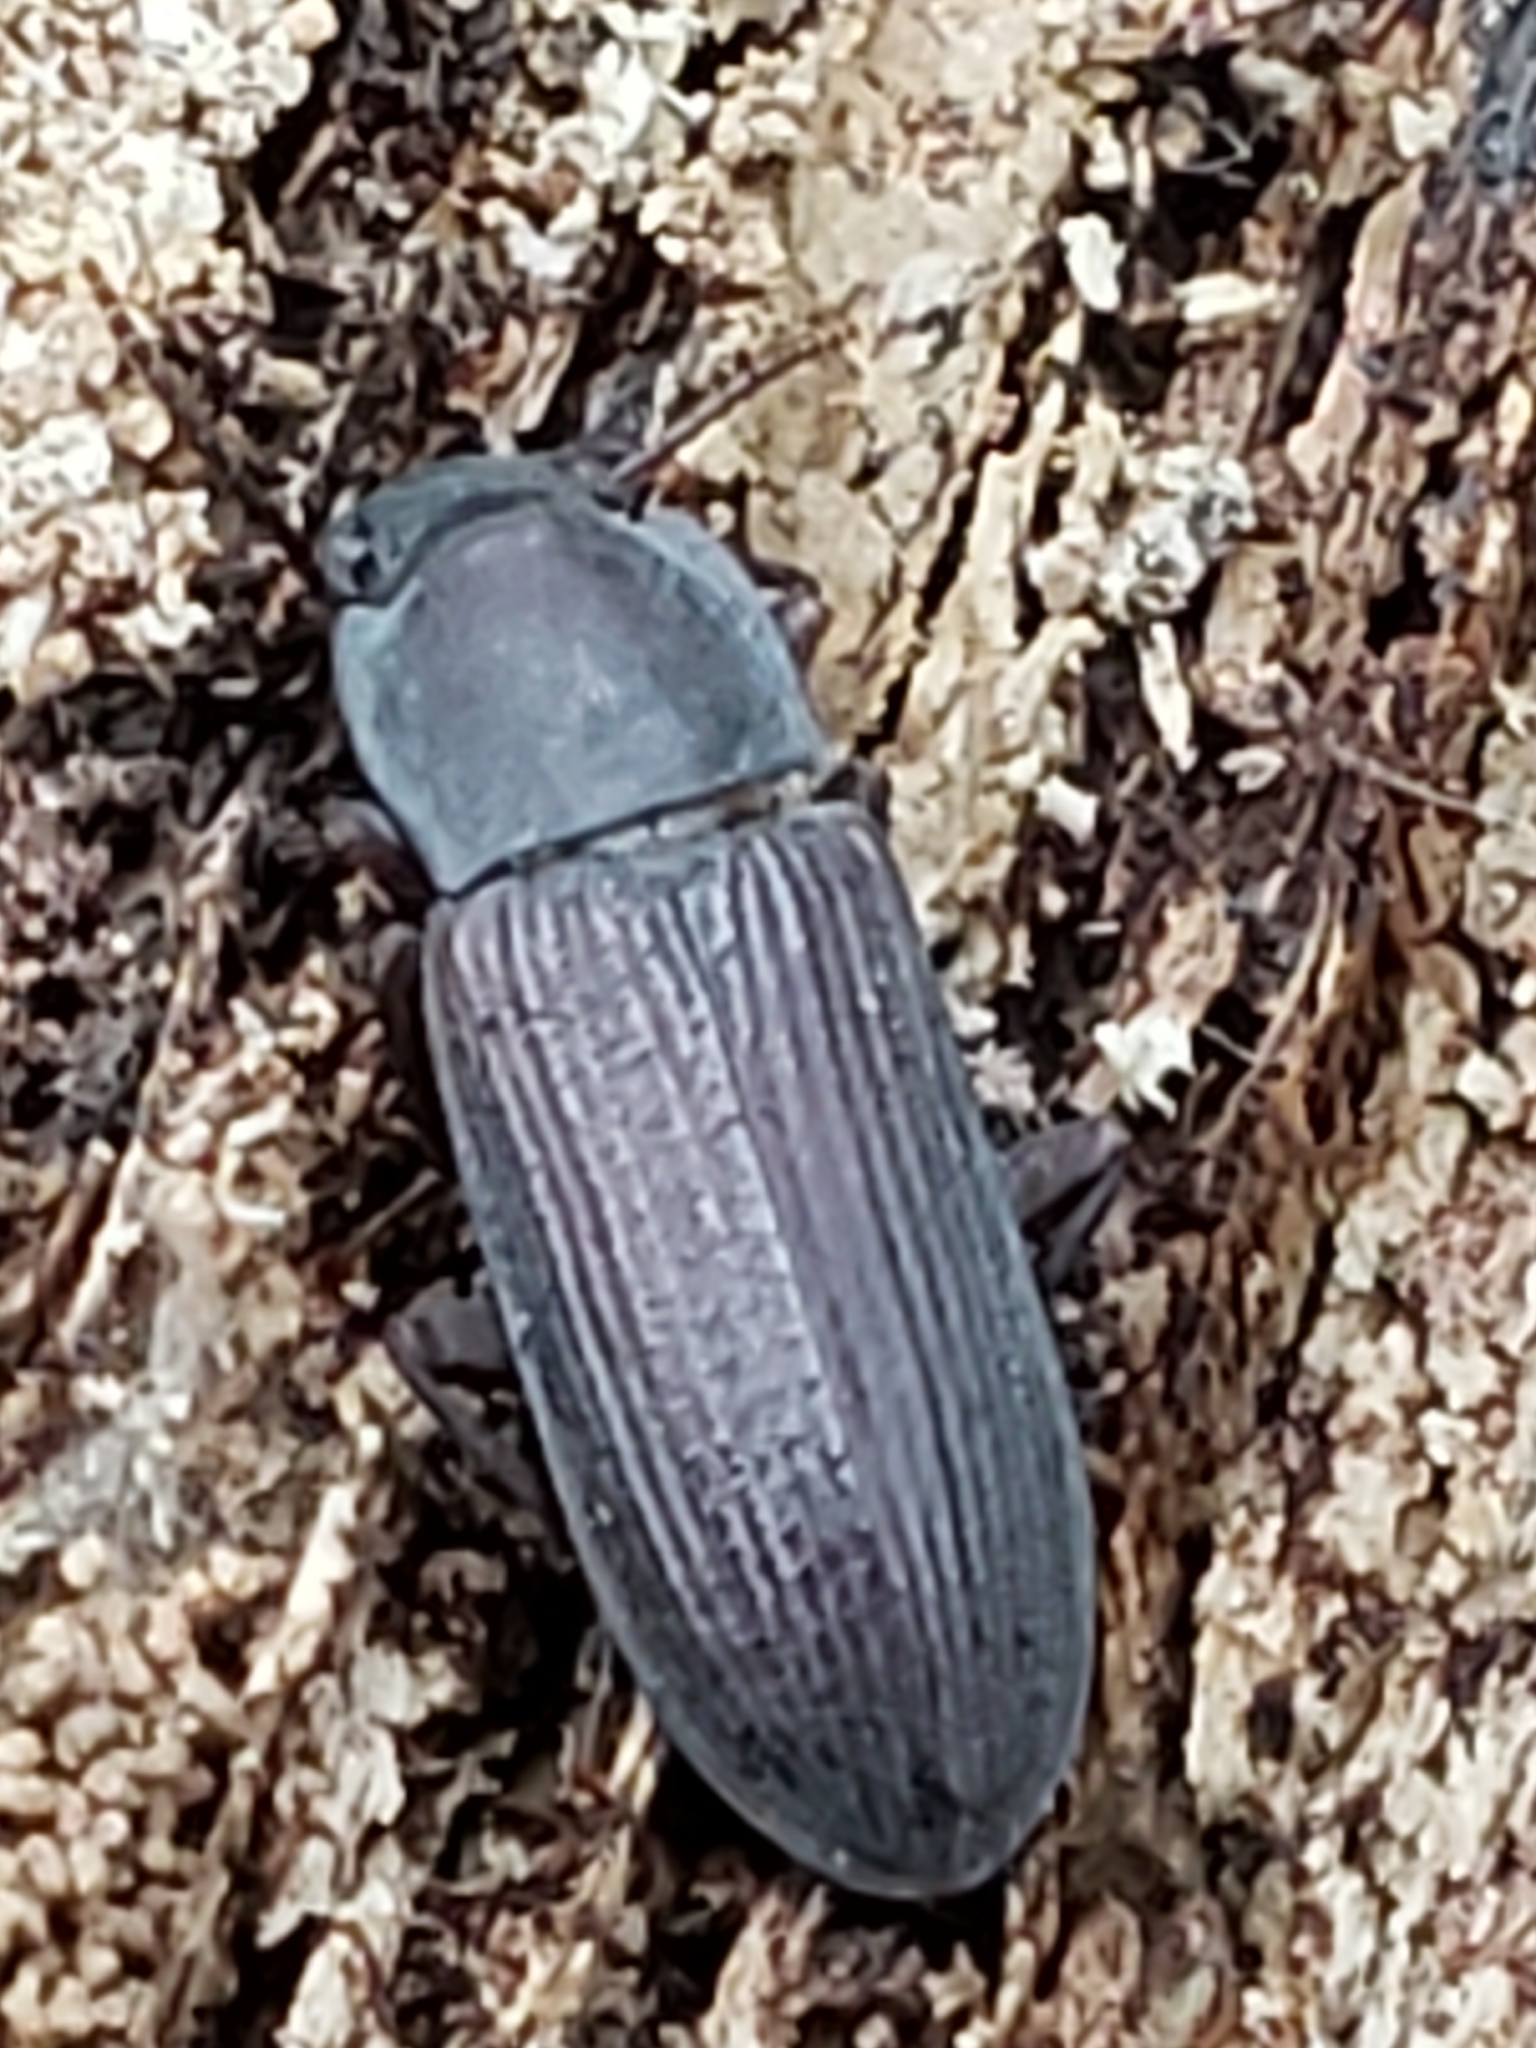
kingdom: Animalia
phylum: Arthropoda
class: Insecta
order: Coleoptera
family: Tenebrionidae
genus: Idiobates
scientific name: Idiobates castaneus
